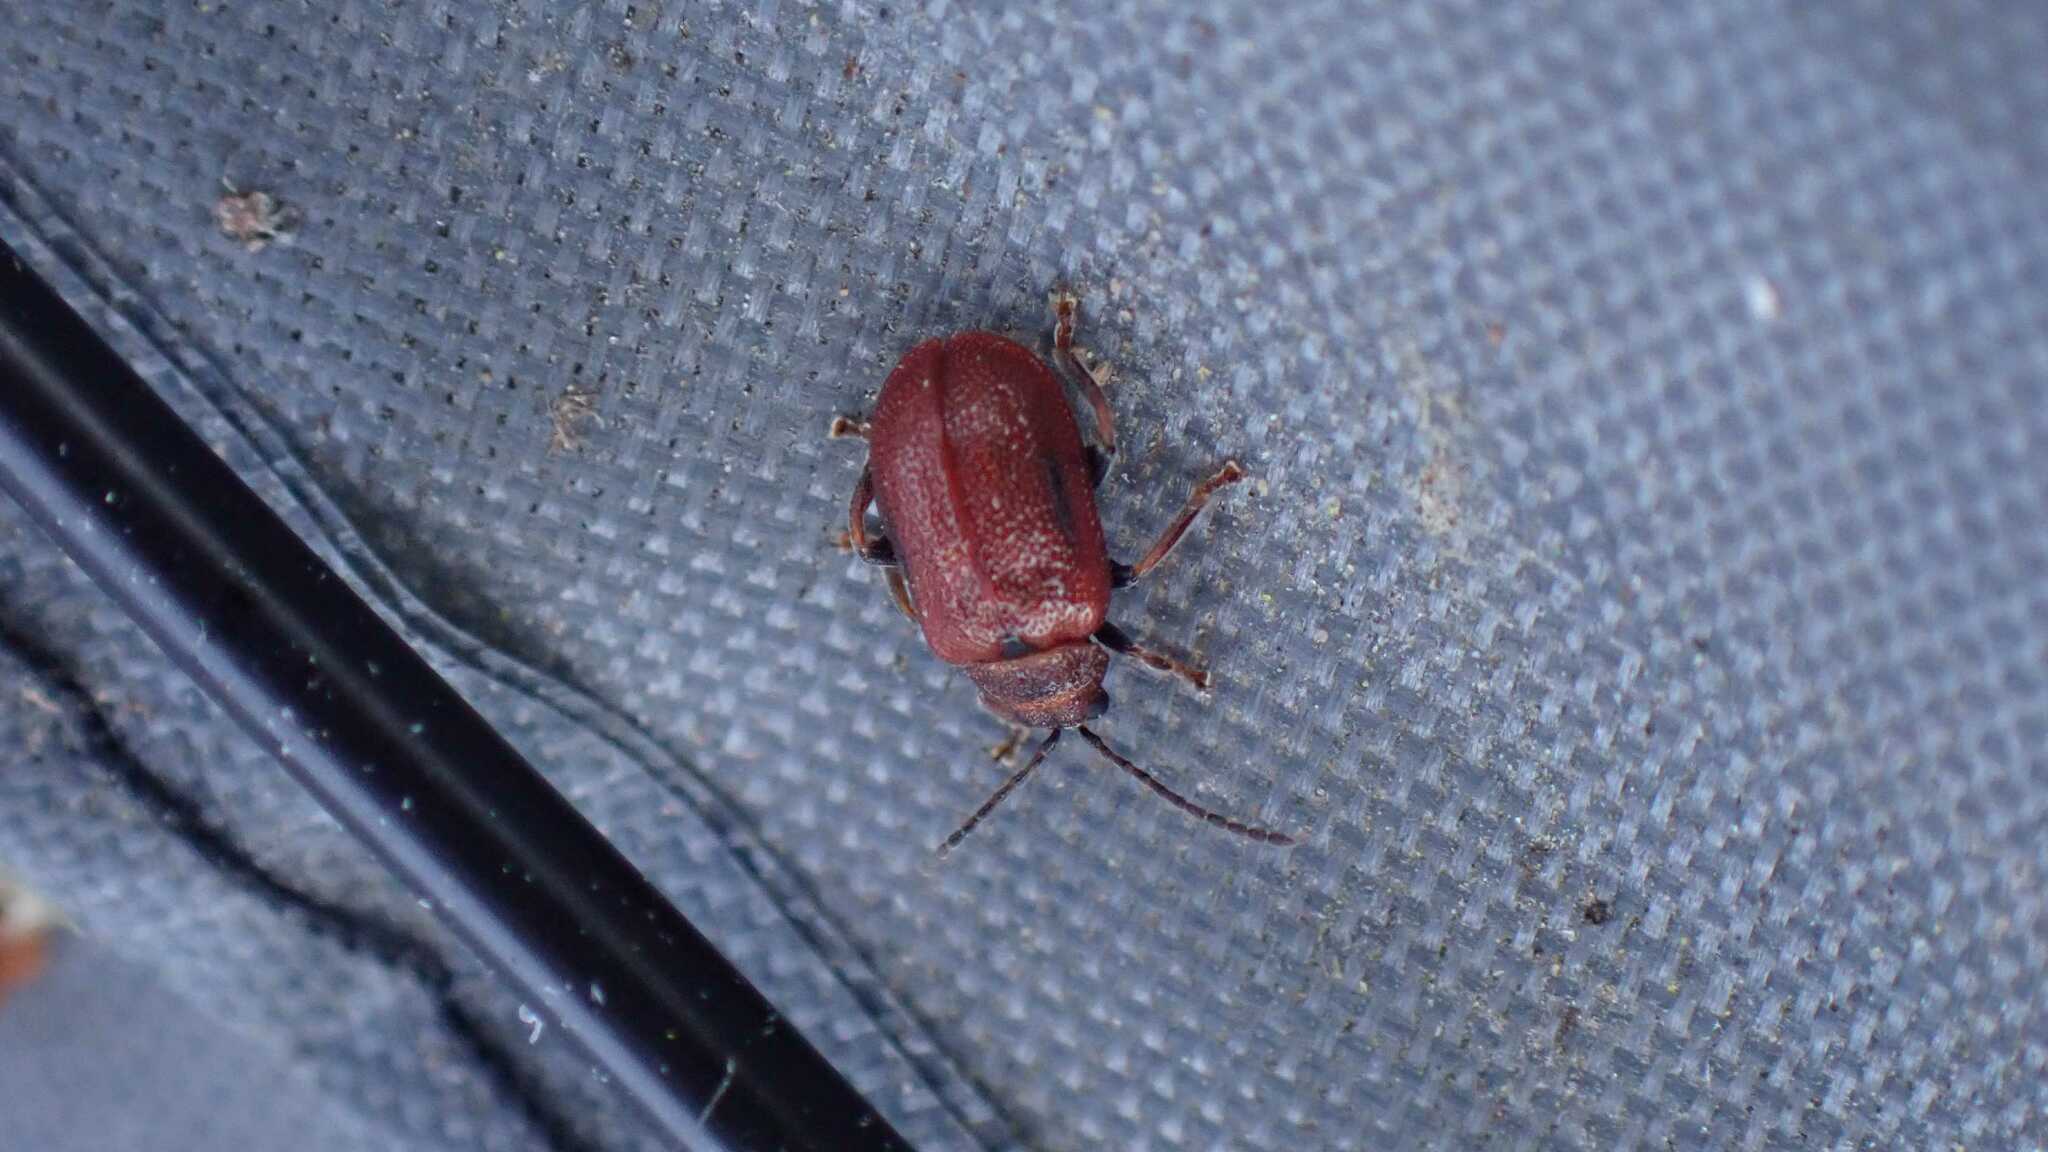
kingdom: Animalia
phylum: Arthropoda
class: Insecta
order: Coleoptera
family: Chrysomelidae
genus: Lochmaea
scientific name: Lochmaea crataegi
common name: Hawthorn leaf beetle
